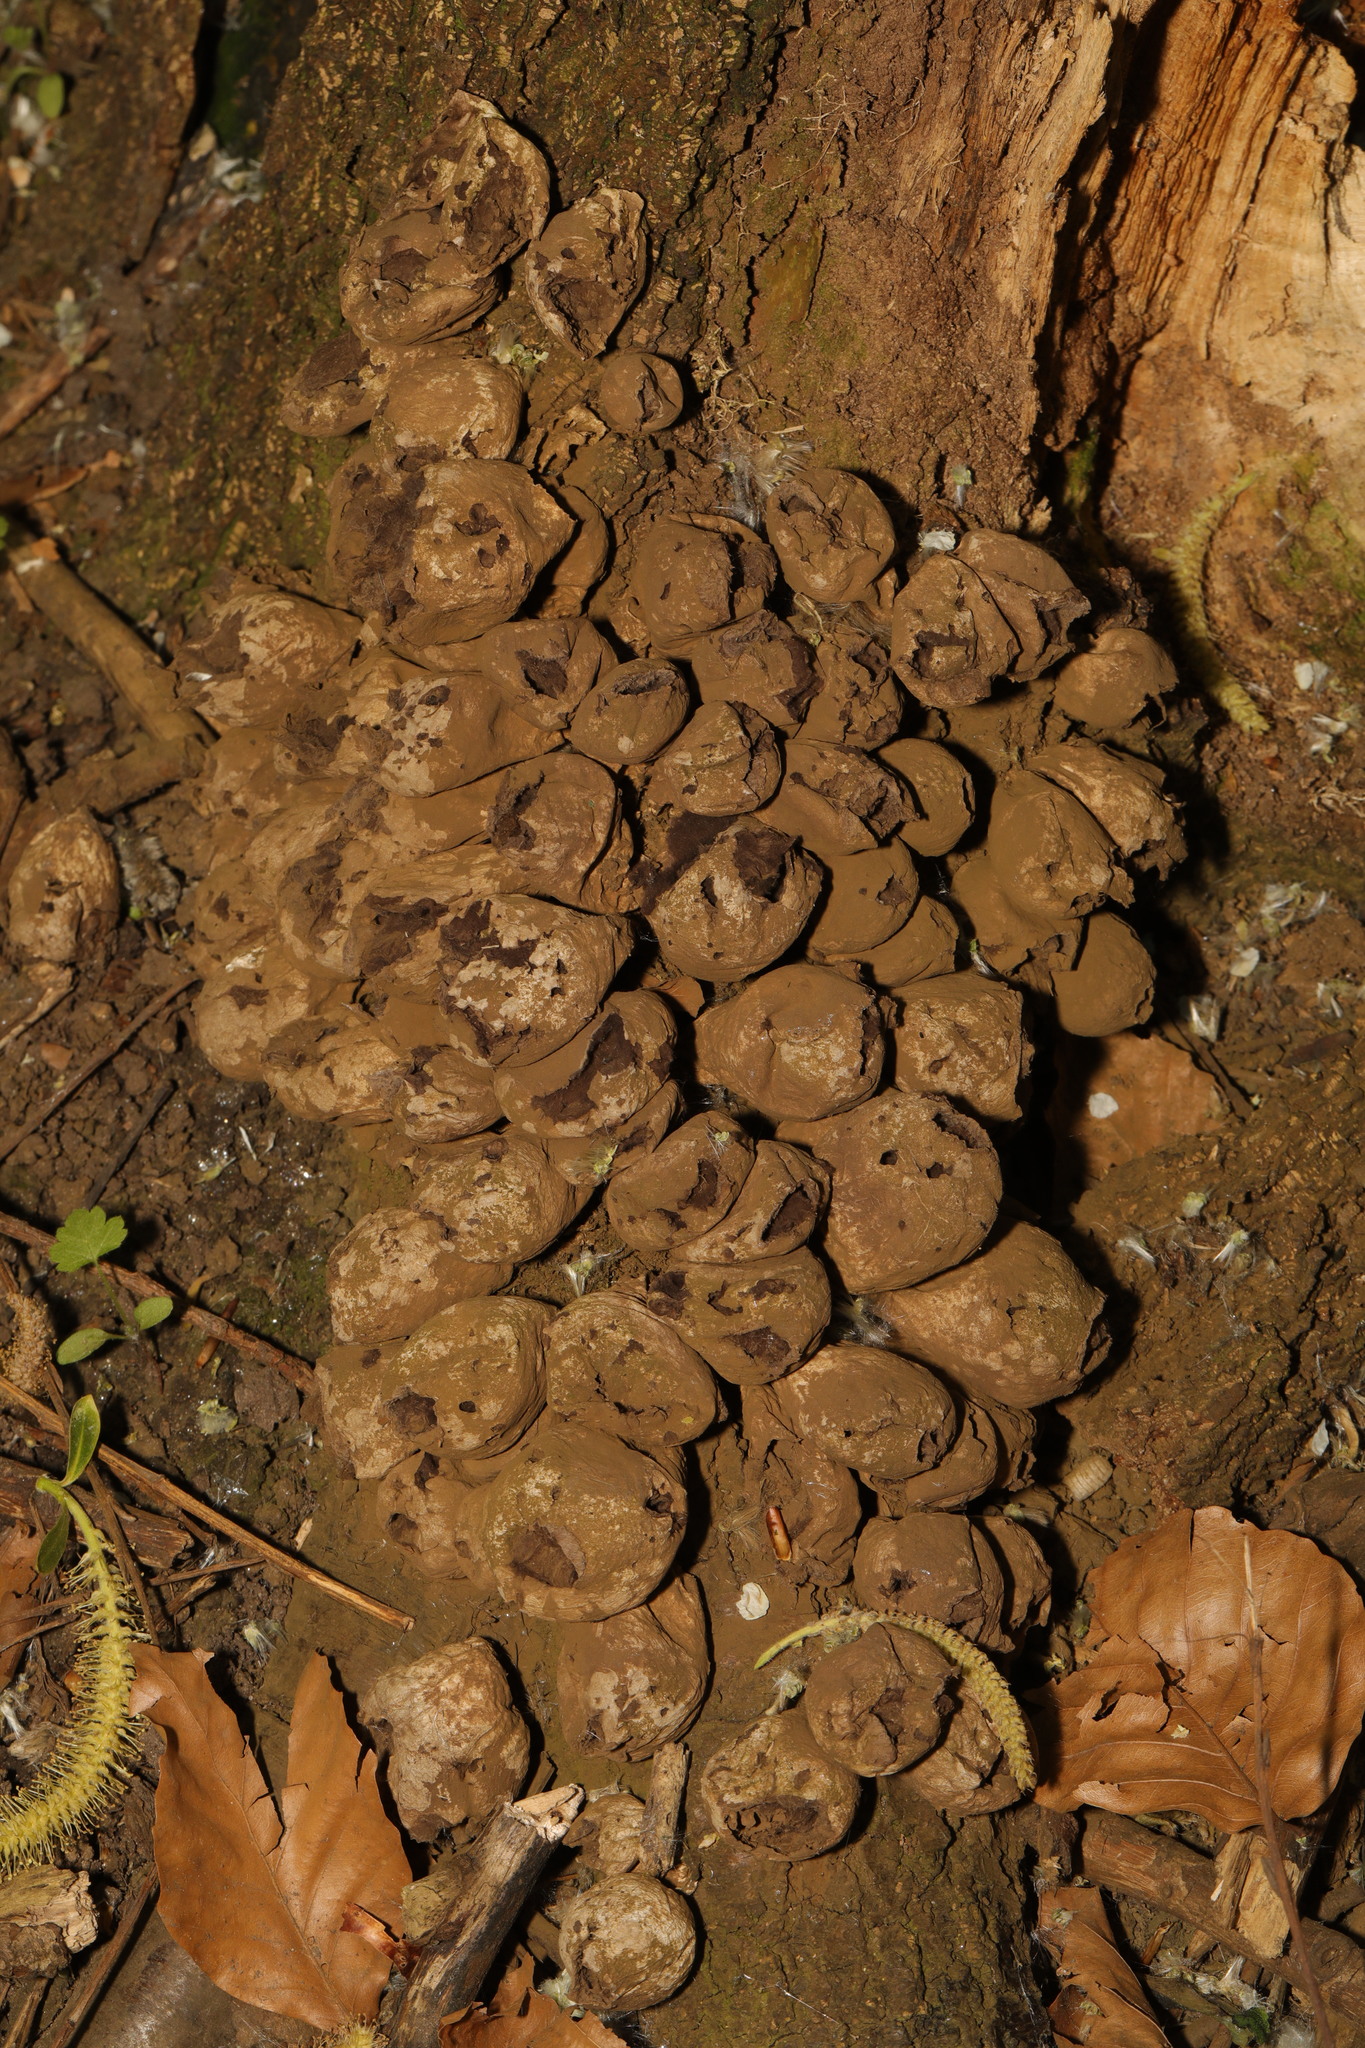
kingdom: Fungi
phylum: Basidiomycota
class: Agaricomycetes
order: Agaricales
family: Lycoperdaceae
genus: Apioperdon
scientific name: Apioperdon pyriforme
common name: Pear-shaped puffball
